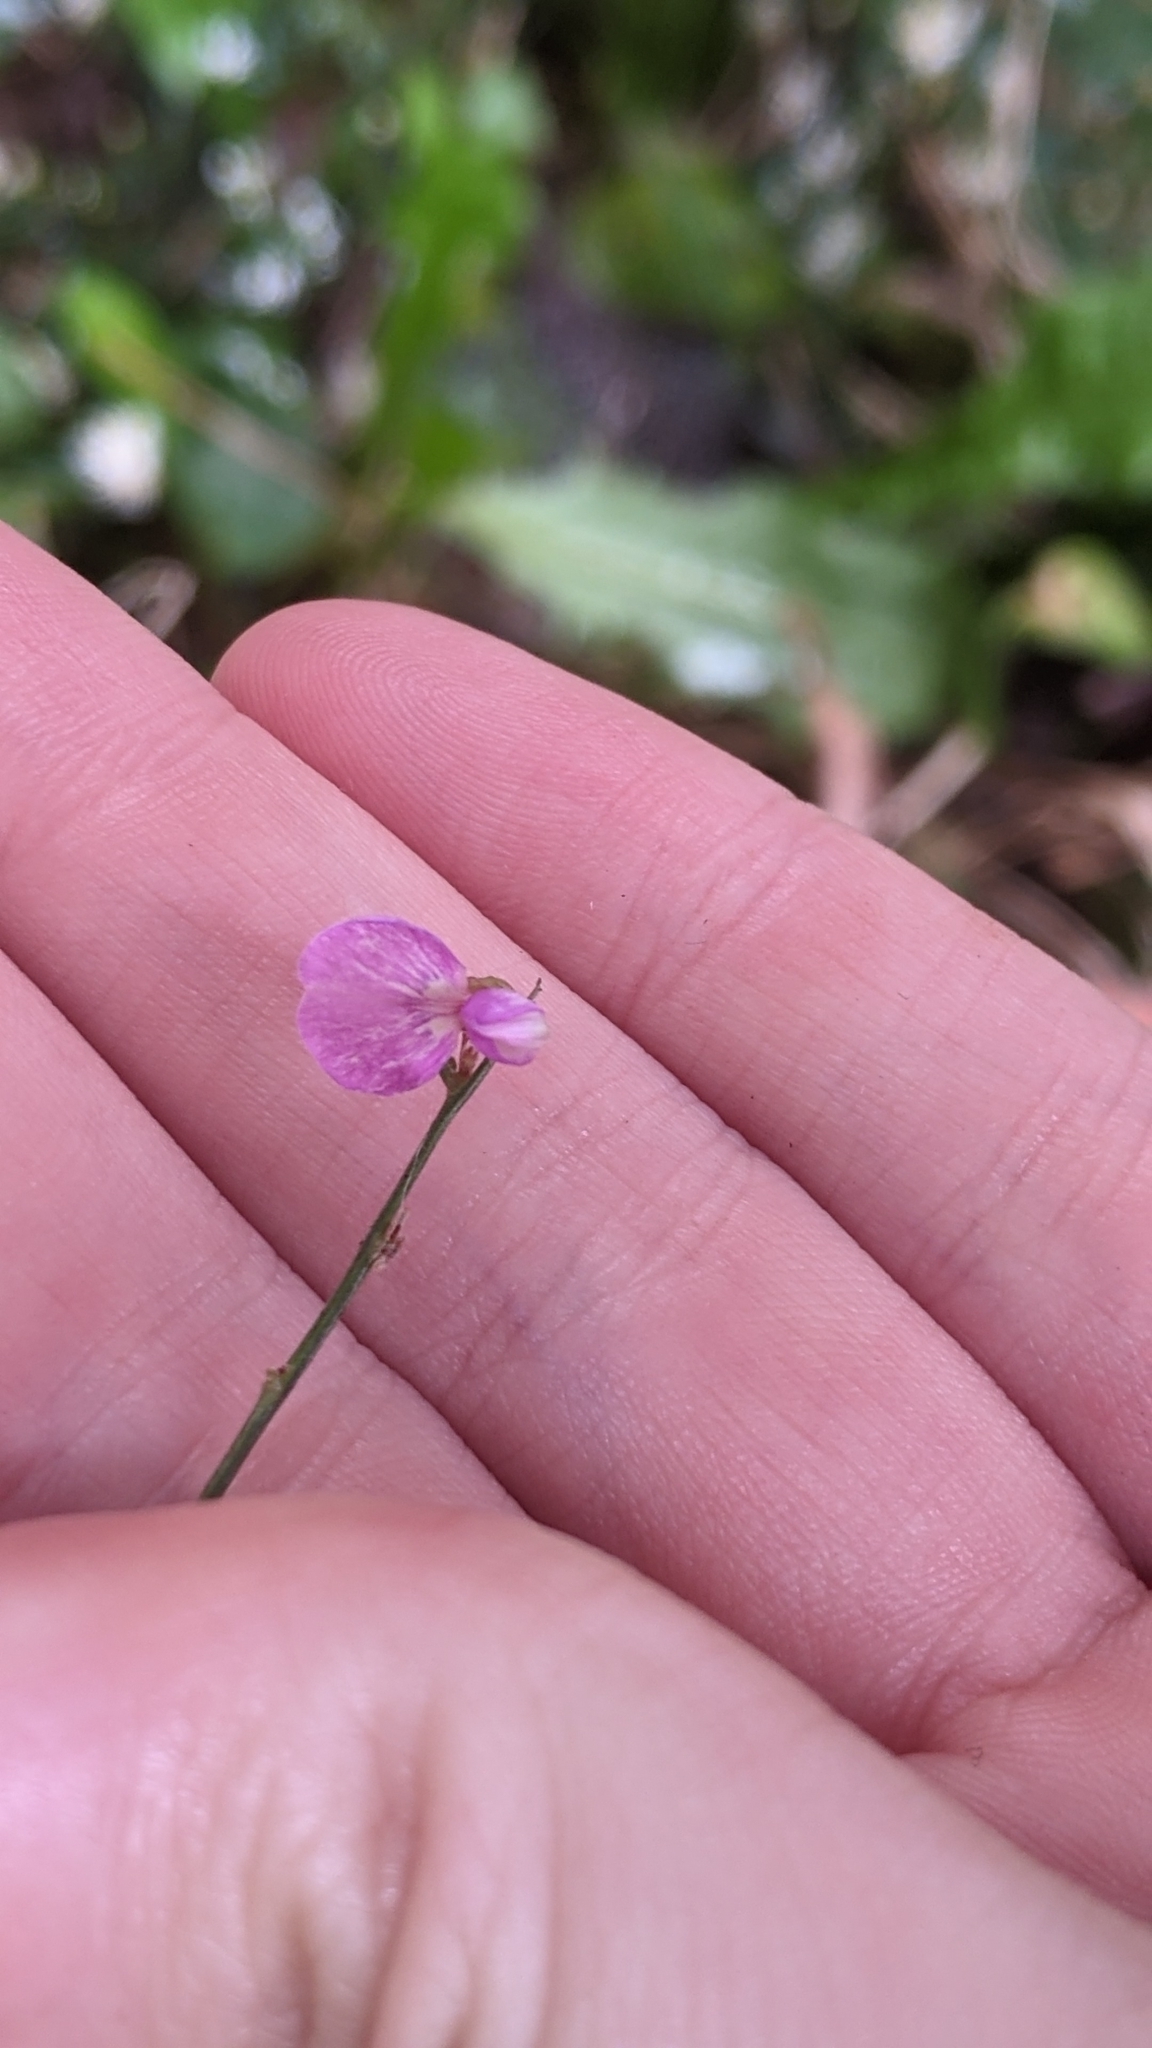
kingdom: Plantae
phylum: Tracheophyta
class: Magnoliopsida
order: Fabales
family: Fabaceae
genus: Desmodium
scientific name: Desmodium paniculatum
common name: Panicled tick-clover
